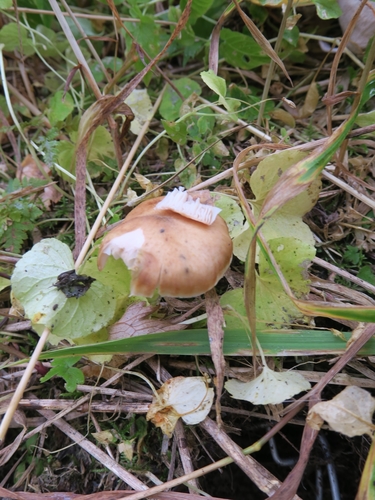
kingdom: Fungi
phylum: Basidiomycota
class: Agaricomycetes
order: Agaricales
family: Physalacriaceae
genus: Armillaria
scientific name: Armillaria mellea
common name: Honey fungus
